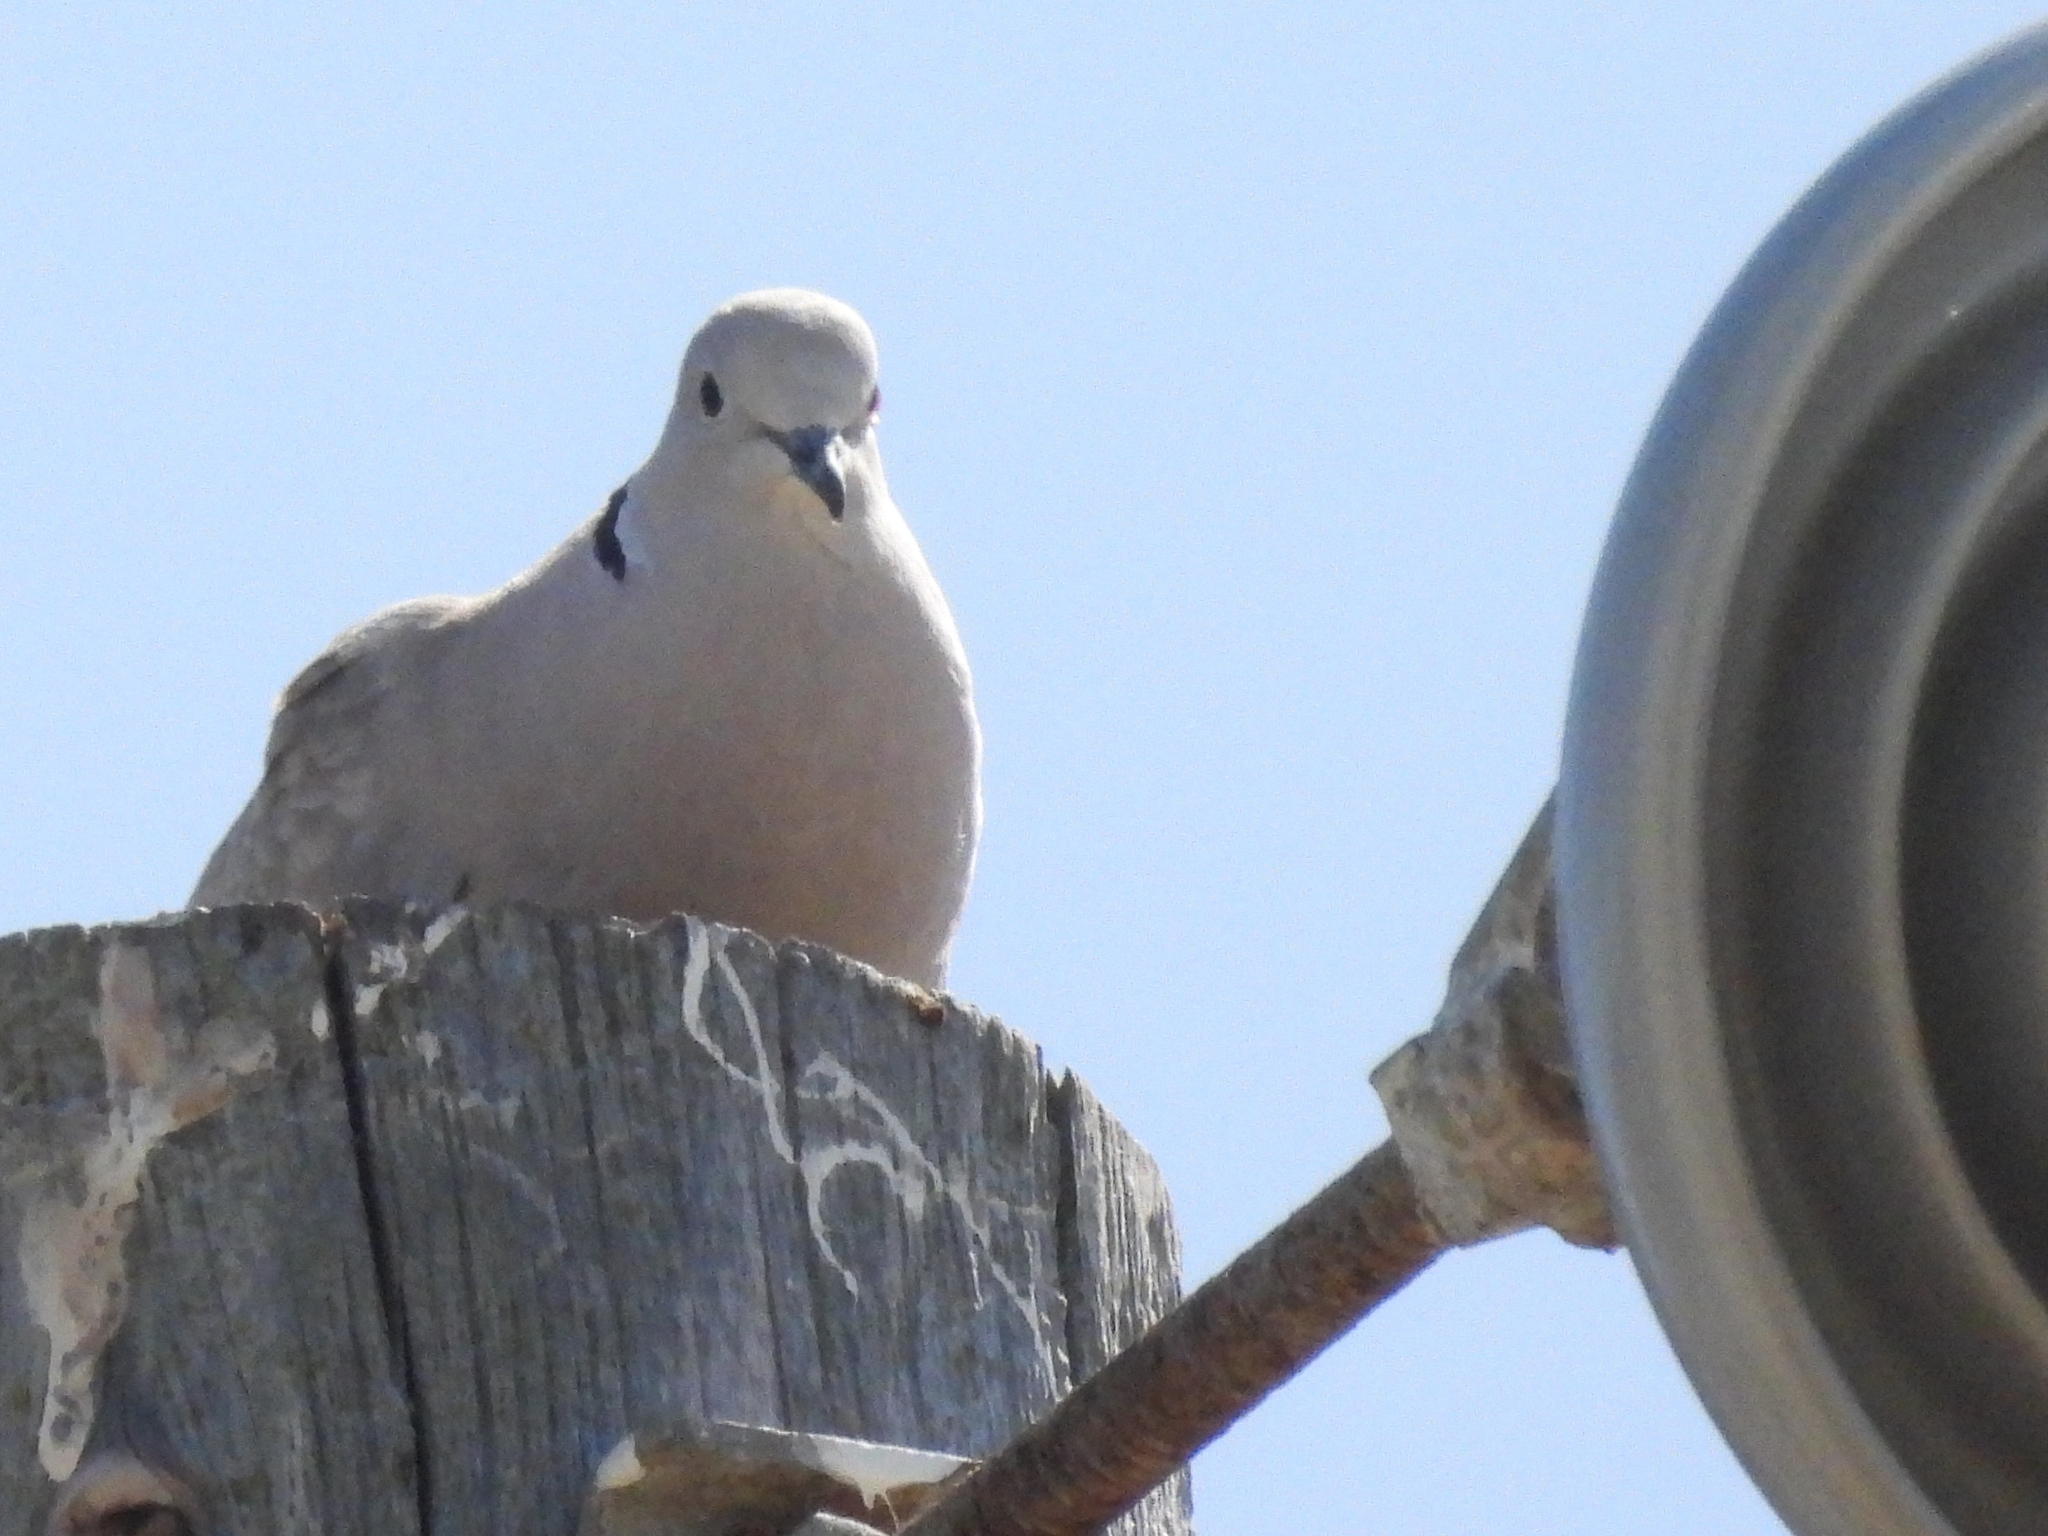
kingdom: Animalia
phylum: Chordata
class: Aves
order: Columbiformes
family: Columbidae
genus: Streptopelia
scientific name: Streptopelia decaocto
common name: Eurasian collared dove
